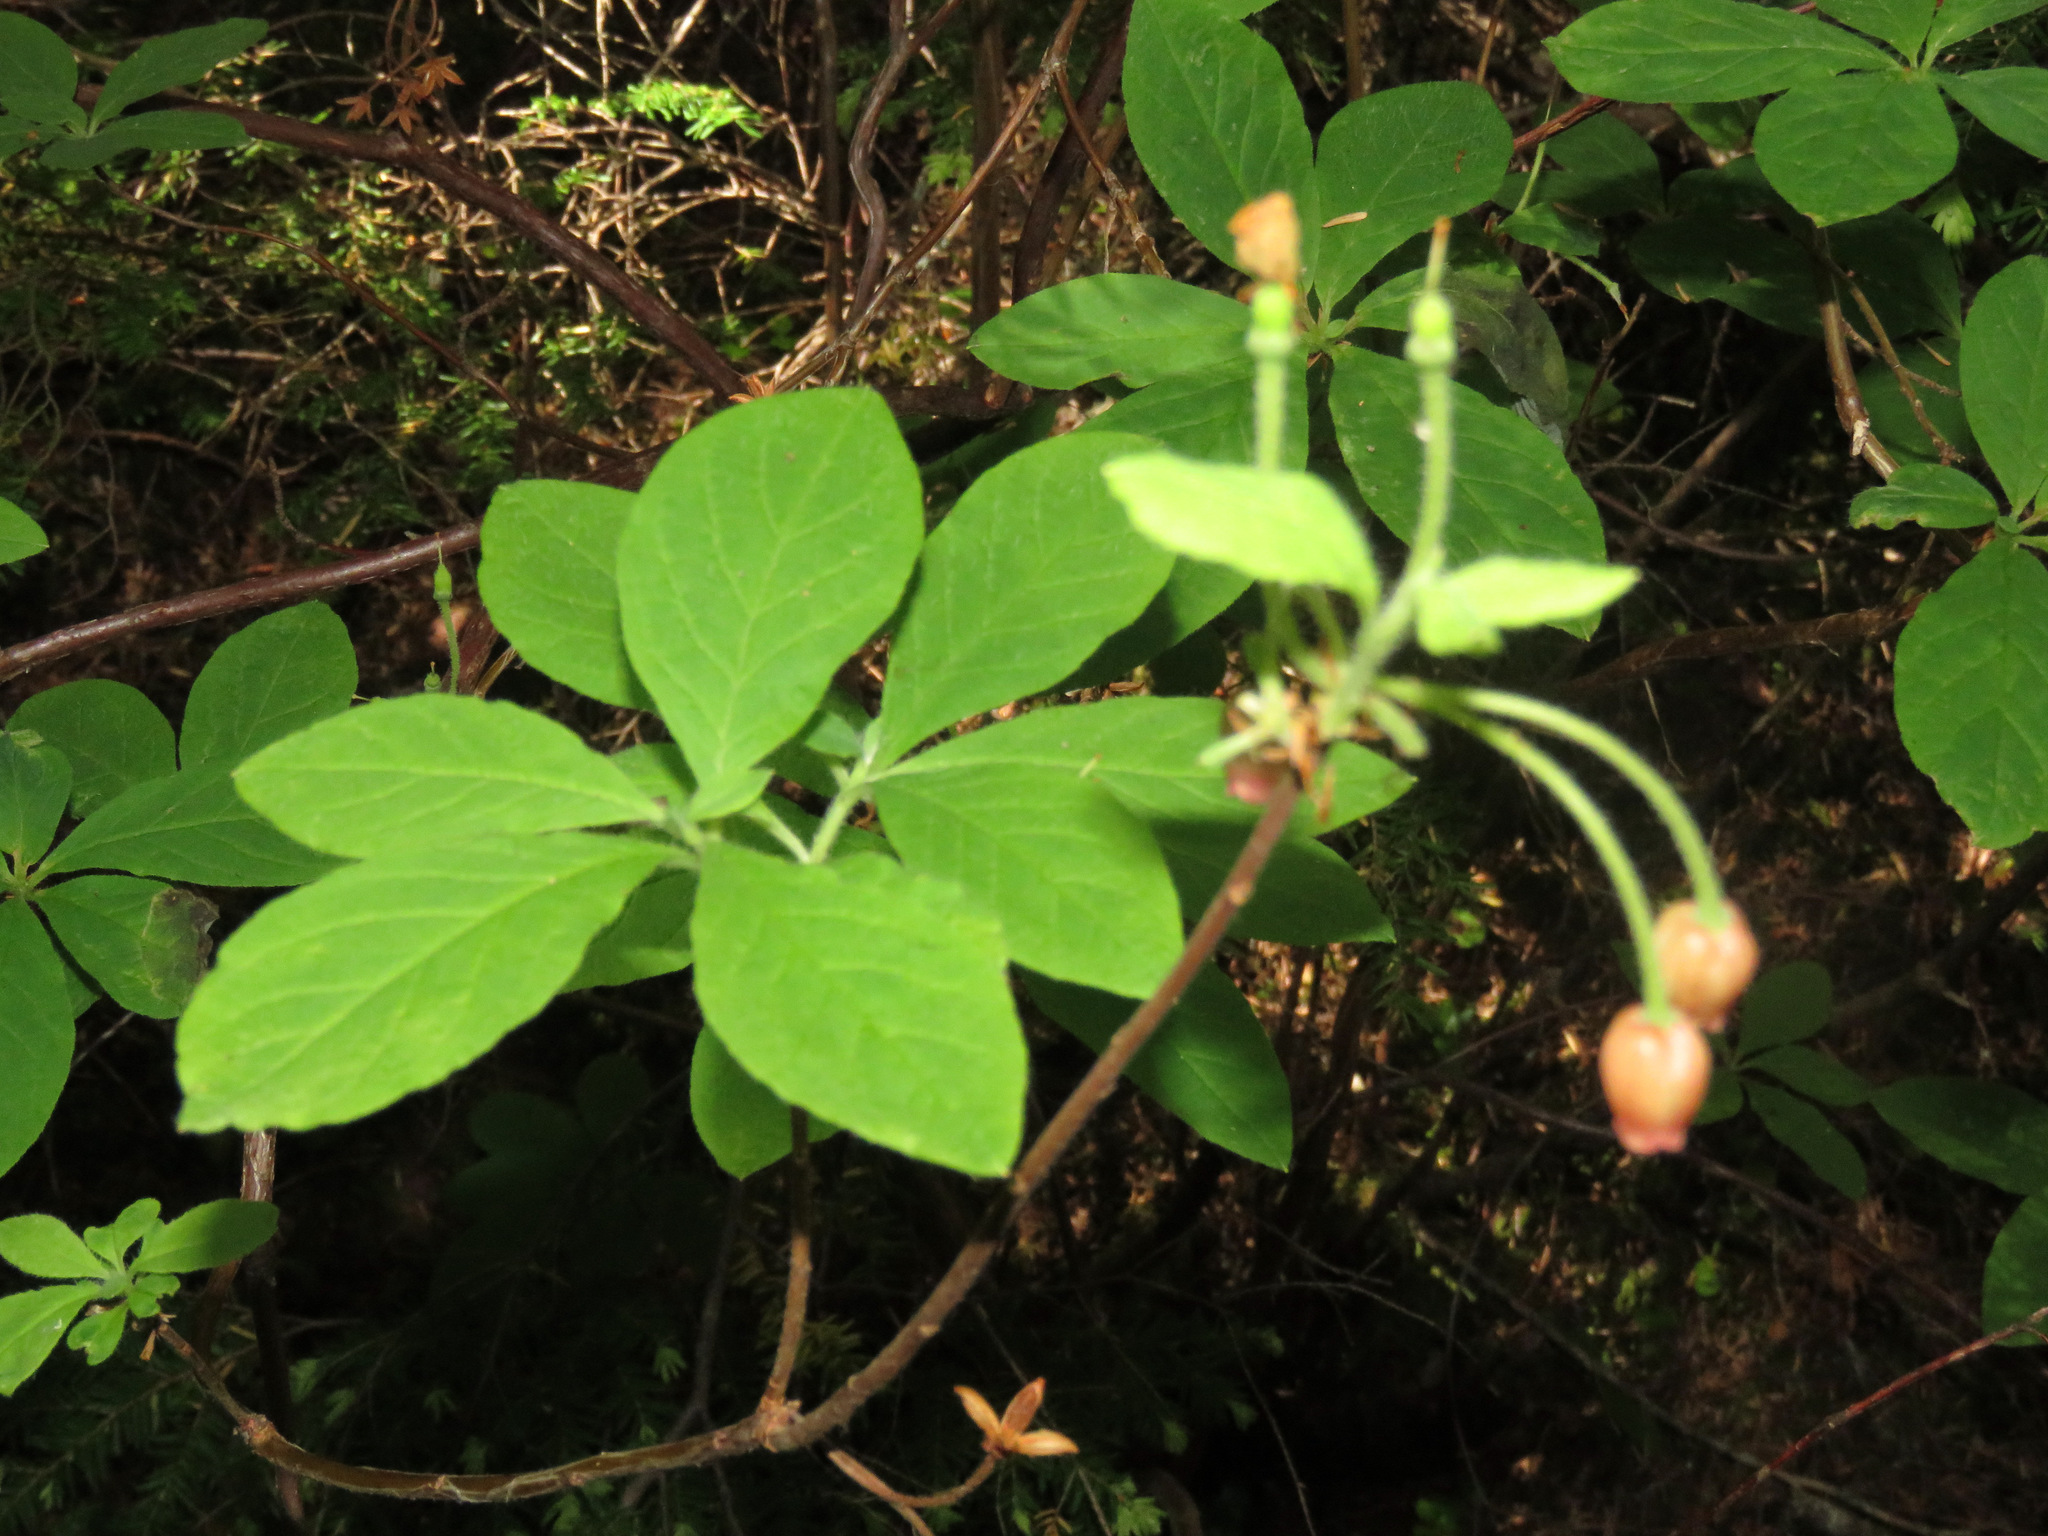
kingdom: Plantae
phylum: Tracheophyta
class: Magnoliopsida
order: Ericales
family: Ericaceae
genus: Rhododendron
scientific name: Rhododendron menziesii
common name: Pacific menziesia
